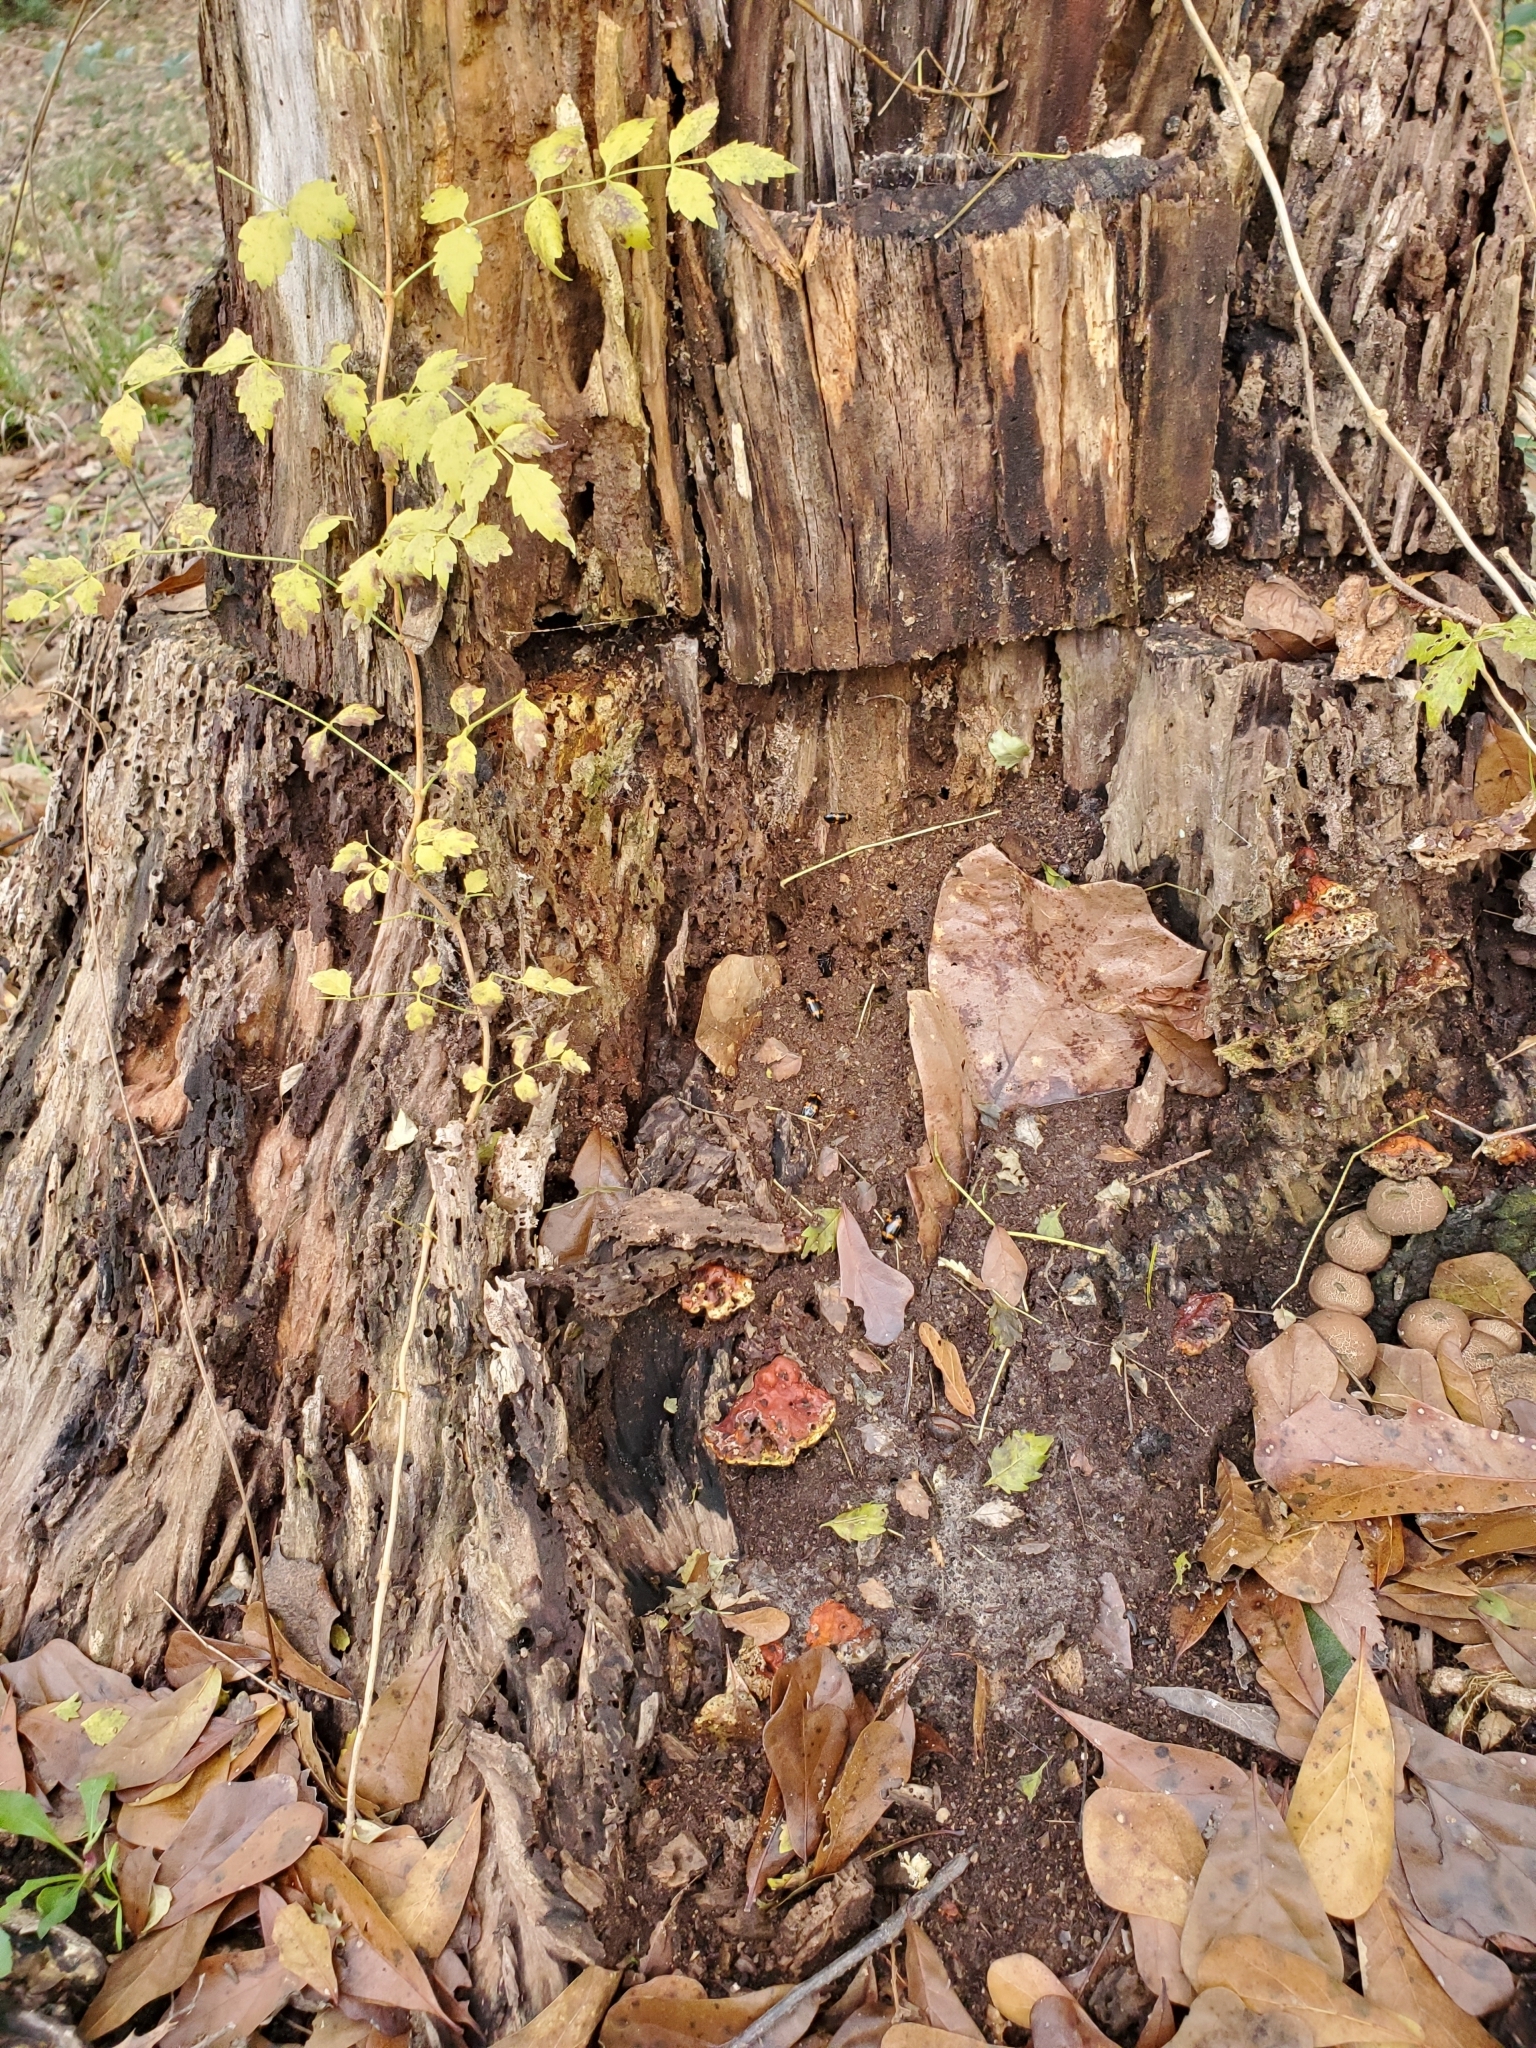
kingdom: Animalia
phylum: Arthropoda
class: Insecta
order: Coleoptera
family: Erotylidae
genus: Megalodacne
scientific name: Megalodacne fasciata
